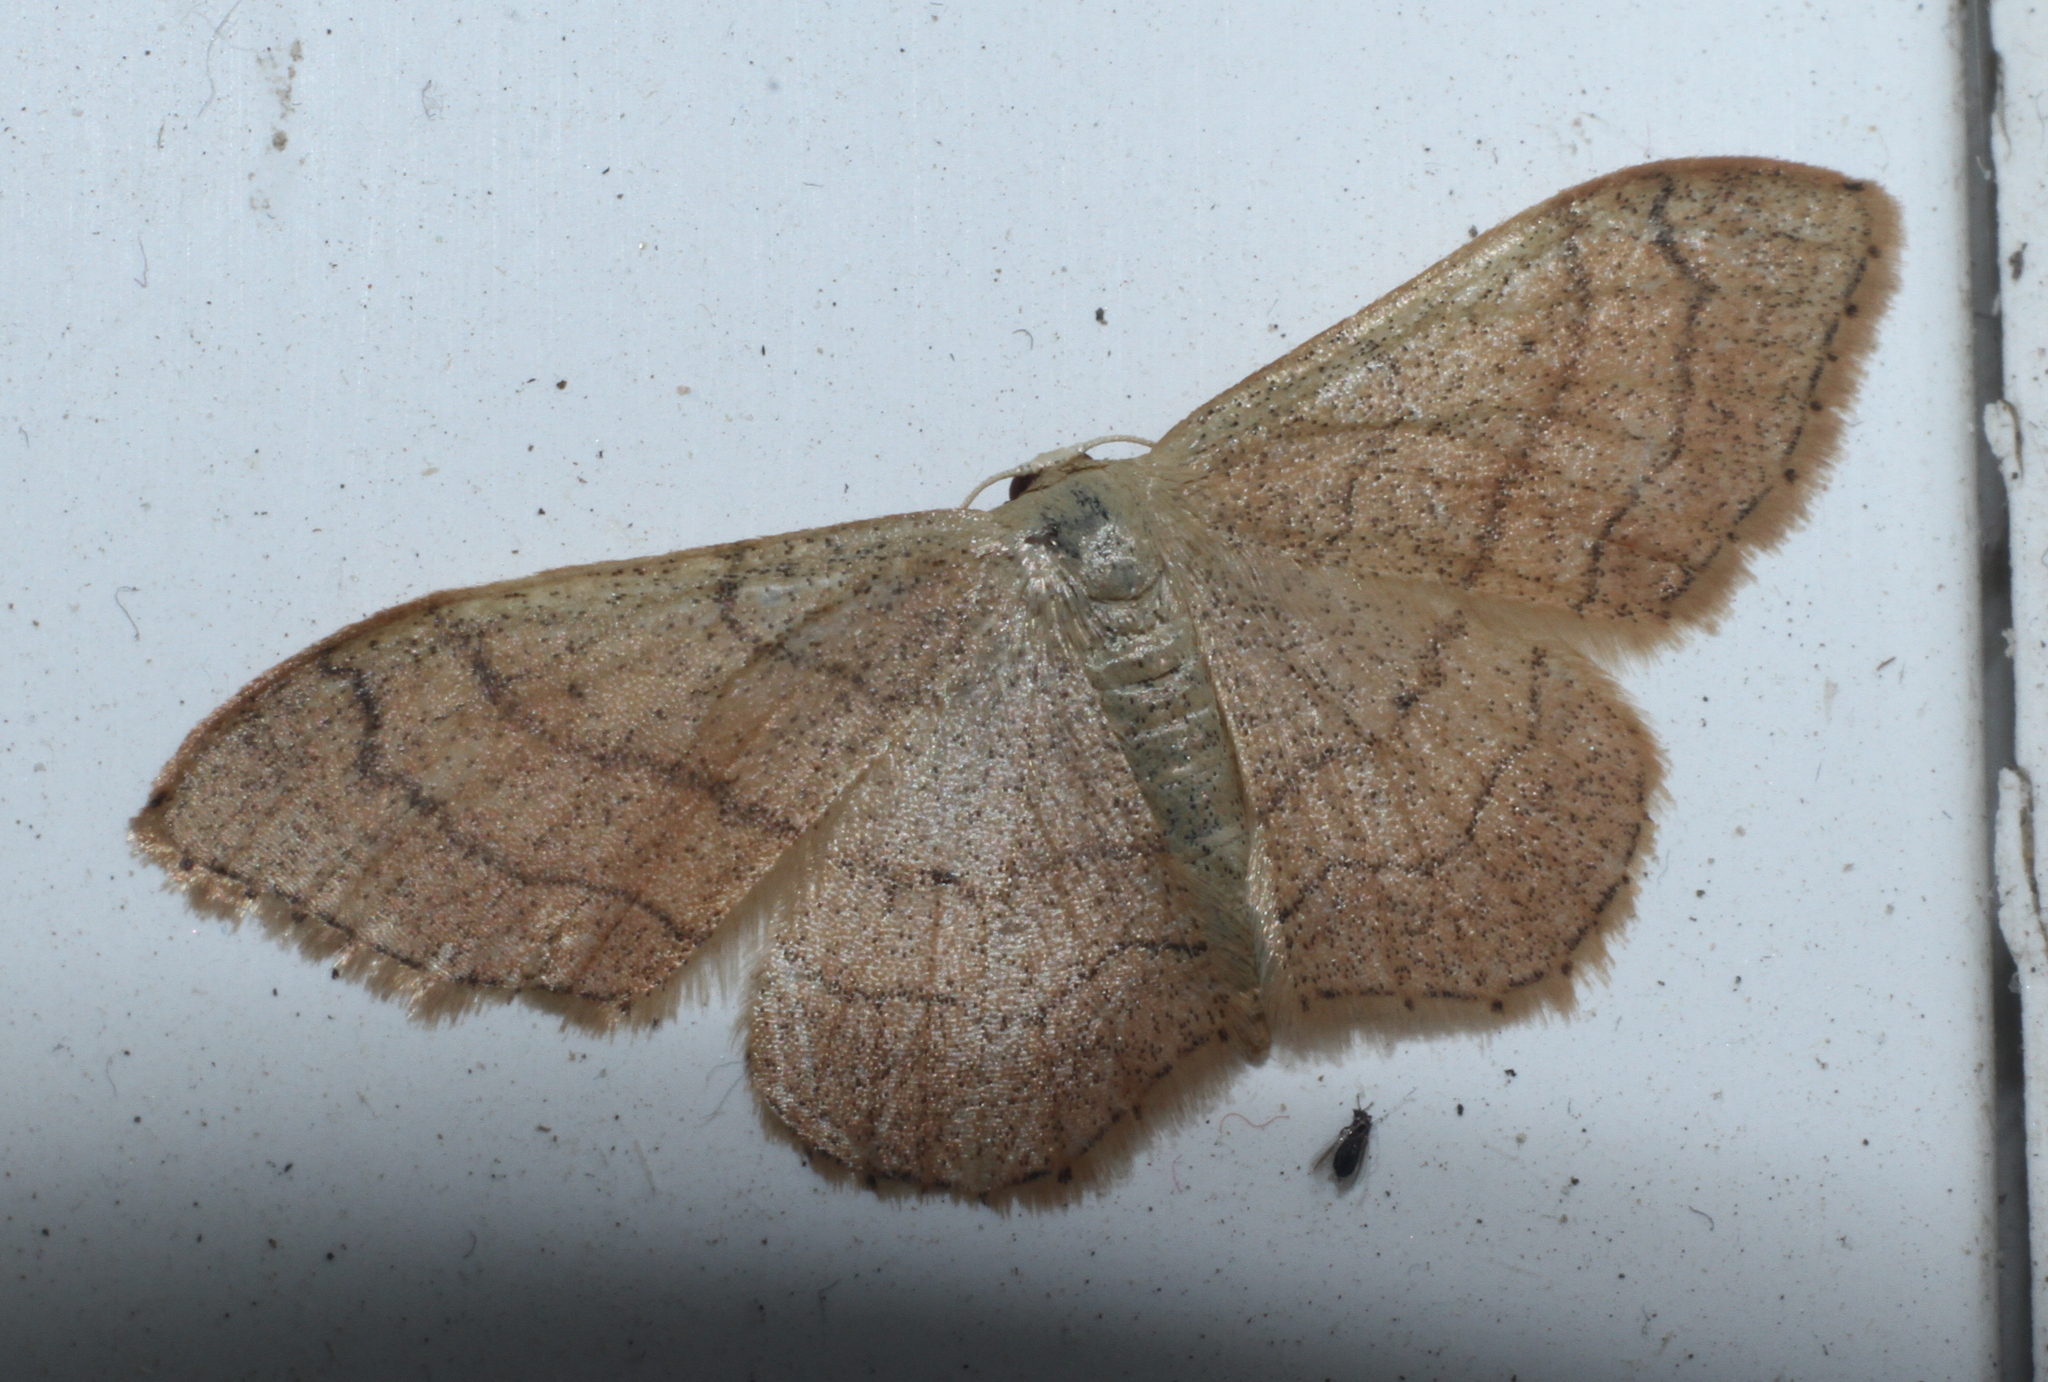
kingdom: Animalia
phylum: Arthropoda
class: Insecta
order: Lepidoptera
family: Geometridae
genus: Idaea
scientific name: Idaea aversata
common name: Riband wave
